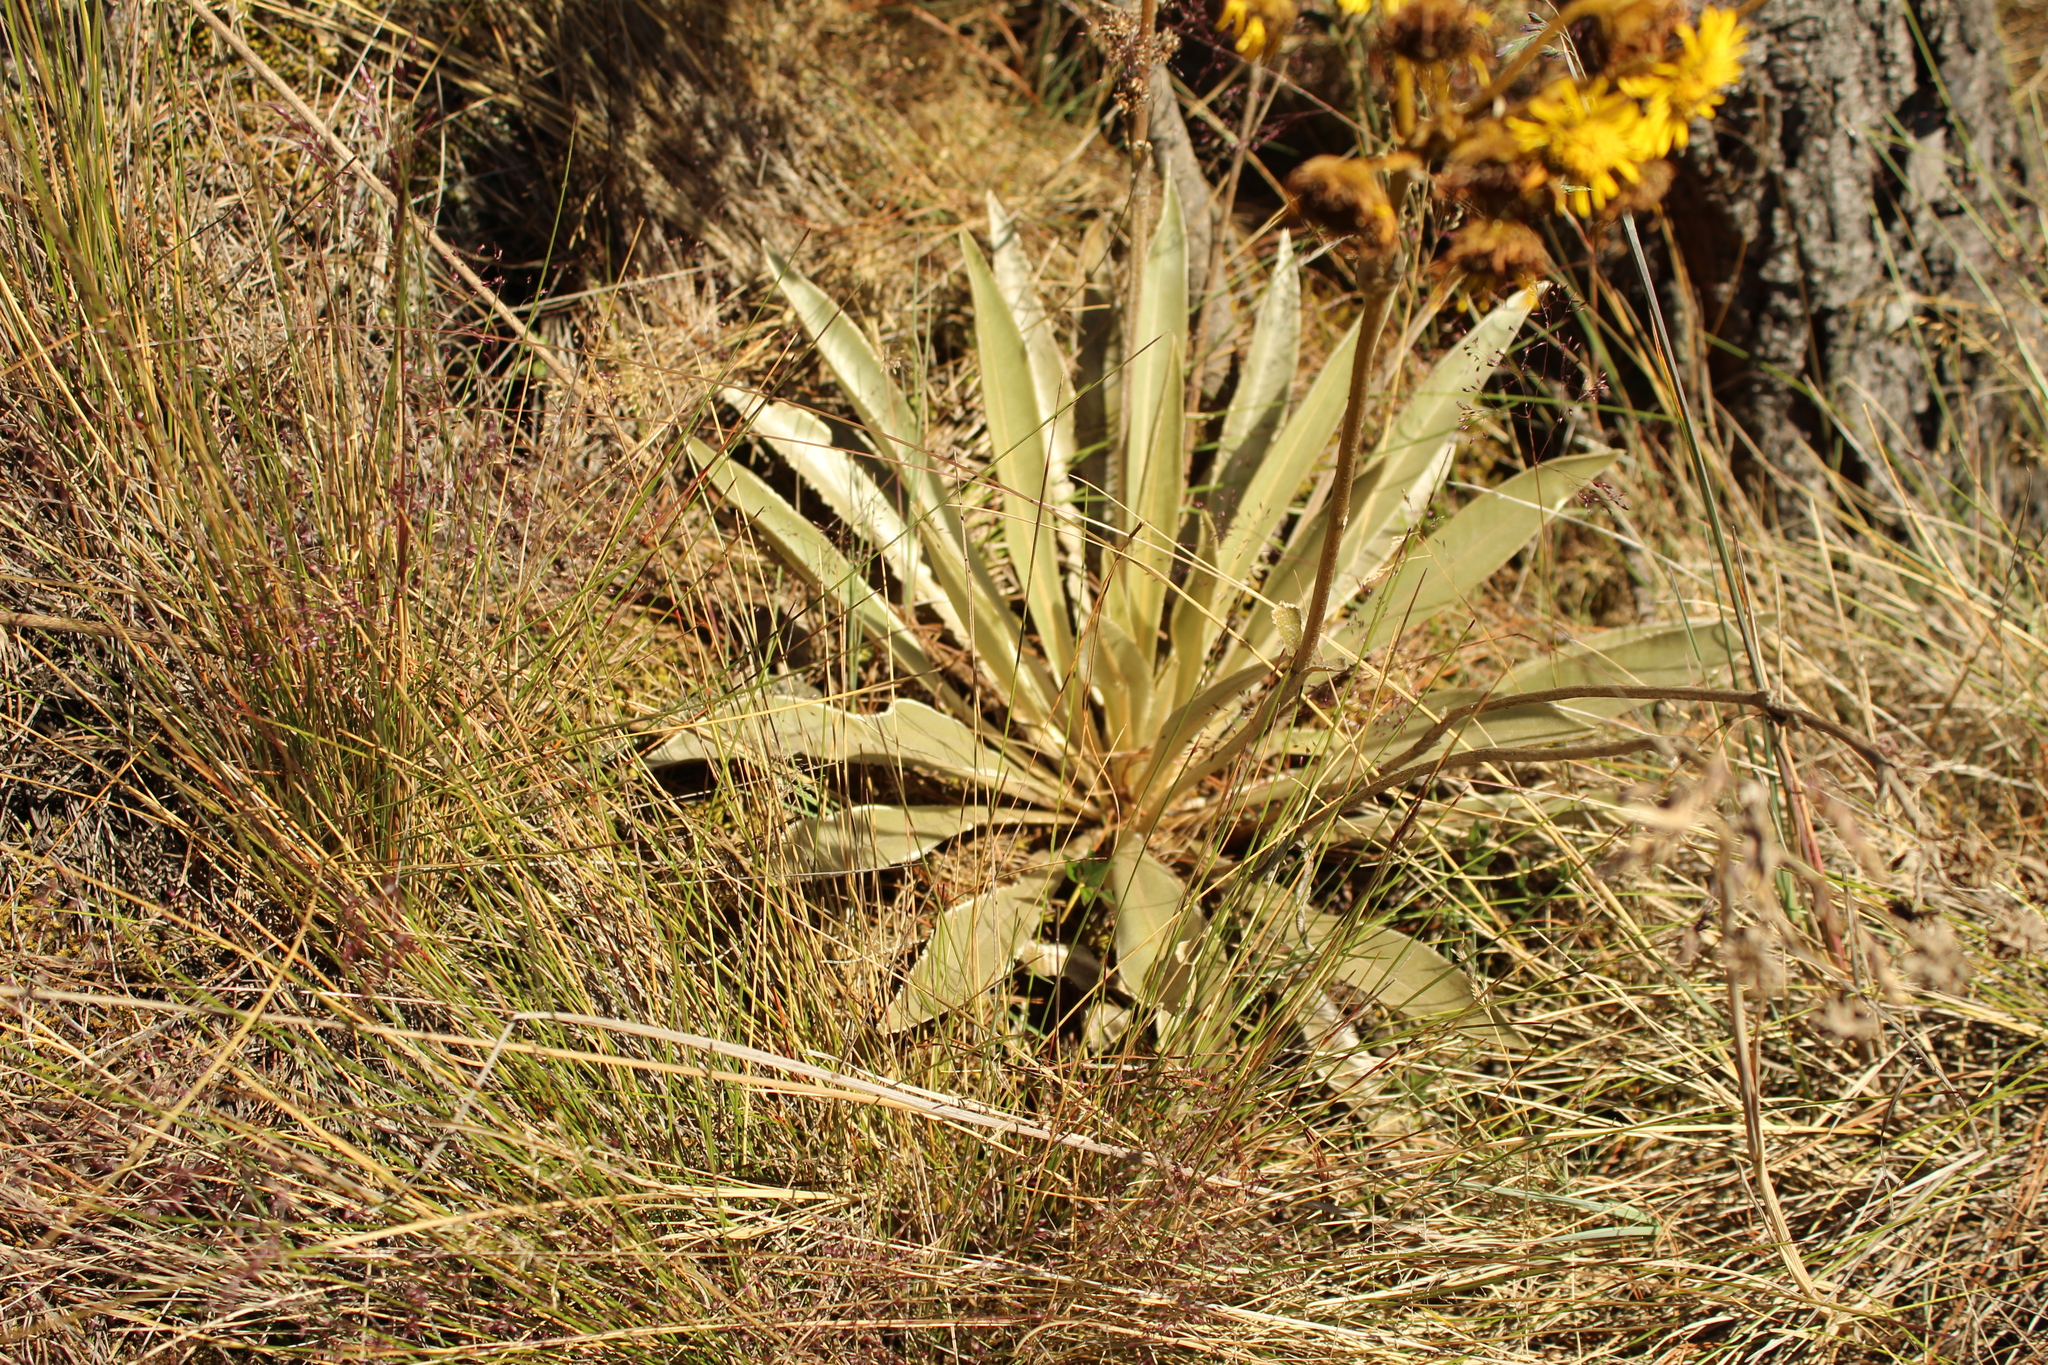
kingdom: Plantae
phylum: Tracheophyta
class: Magnoliopsida
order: Asterales
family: Asteraceae
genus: Espeletia
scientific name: Espeletia boyacensis
